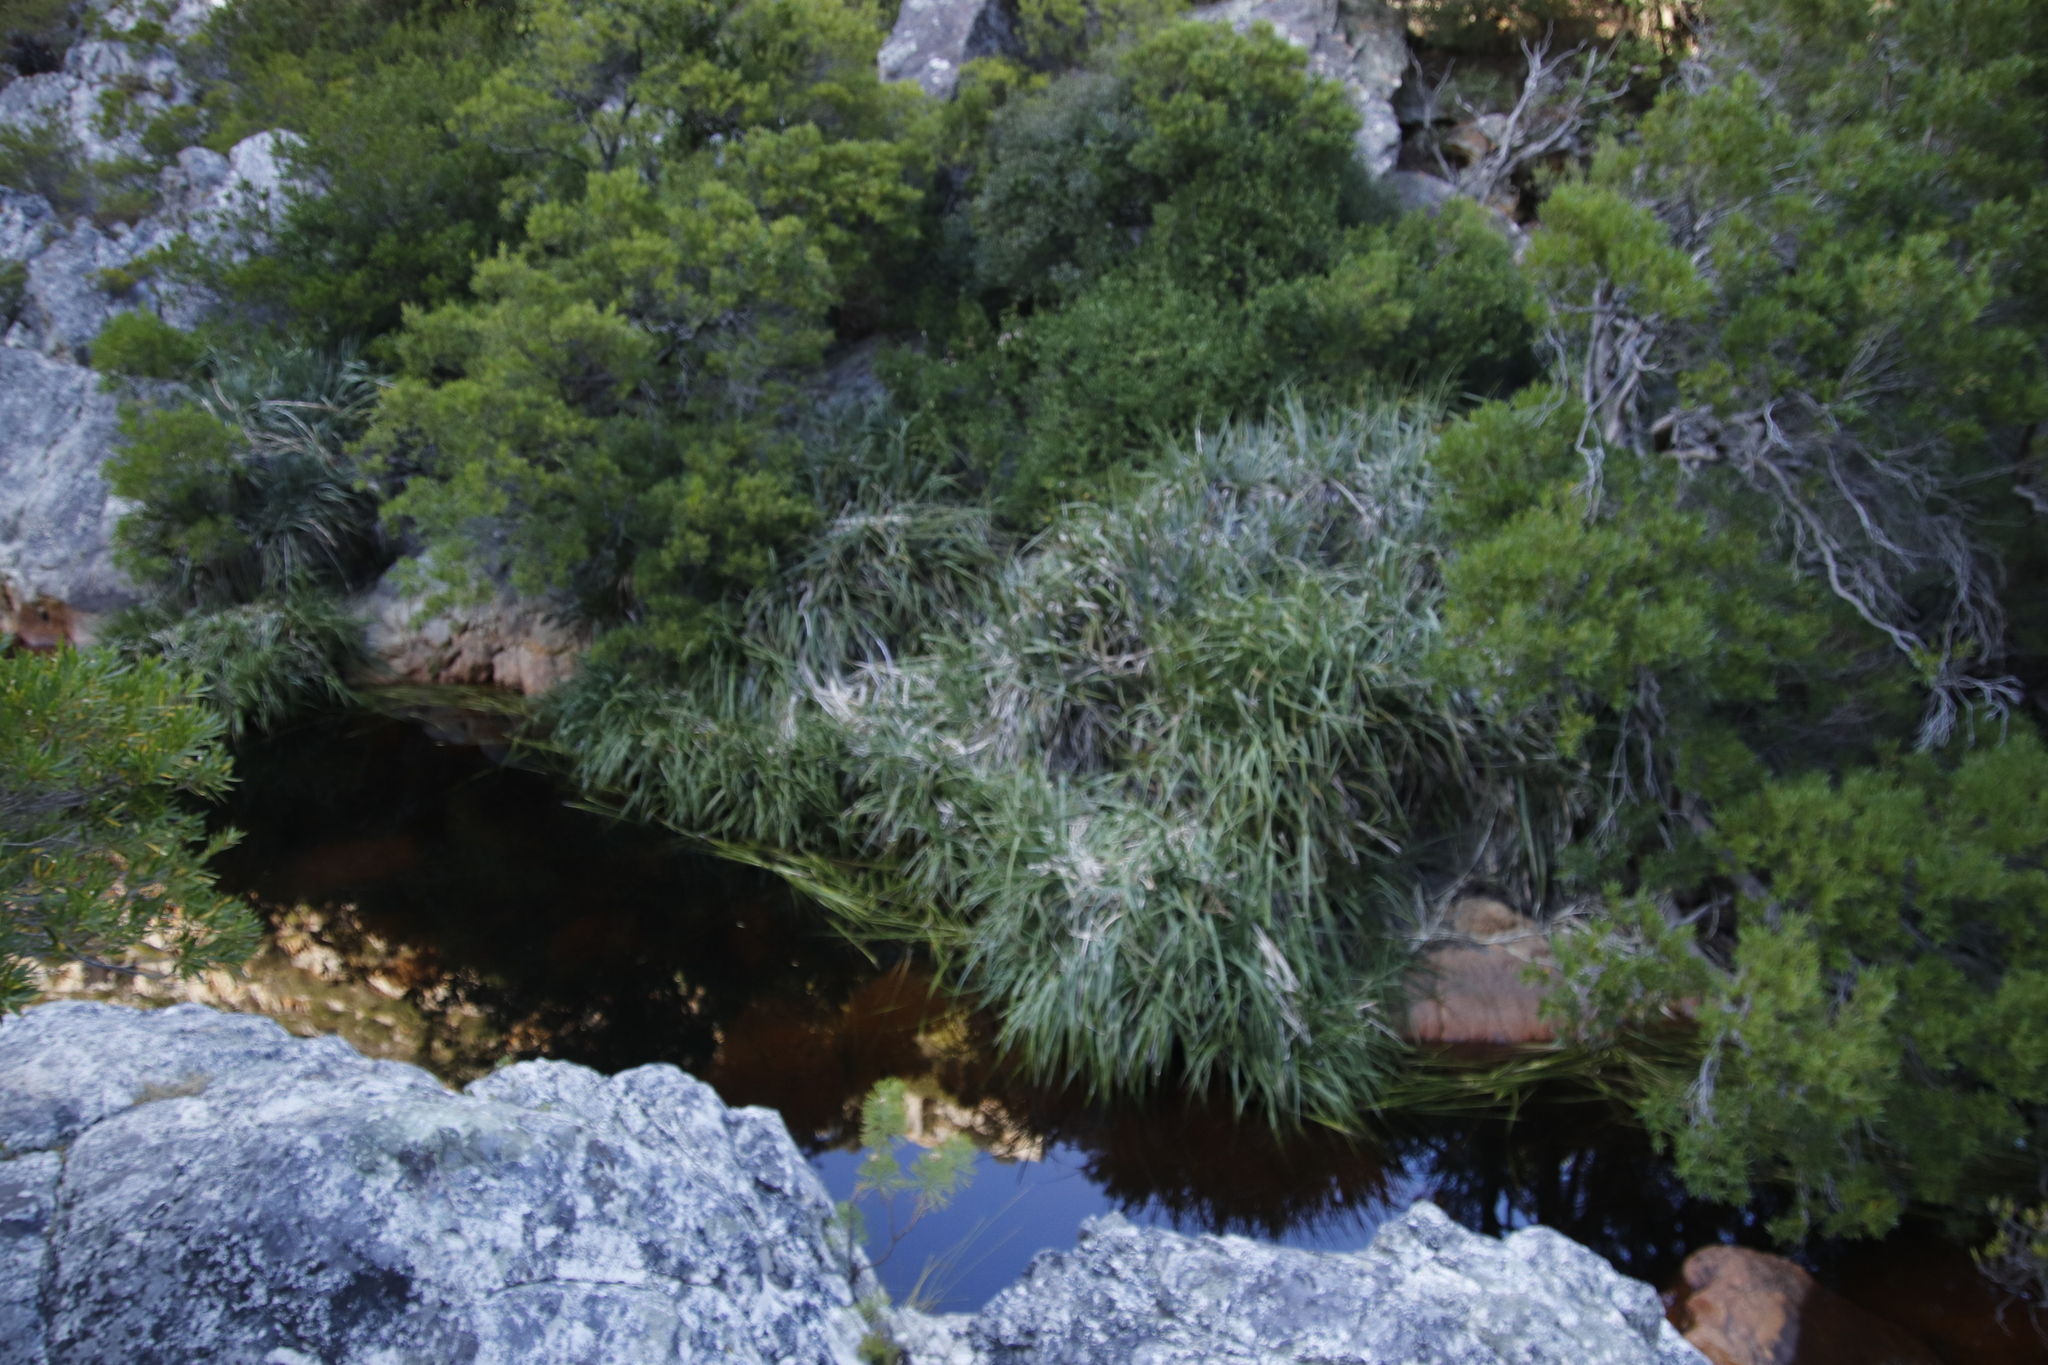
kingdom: Plantae
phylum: Tracheophyta
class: Liliopsida
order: Poales
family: Thurniaceae
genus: Prionium
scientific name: Prionium serratum
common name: Palmiet
